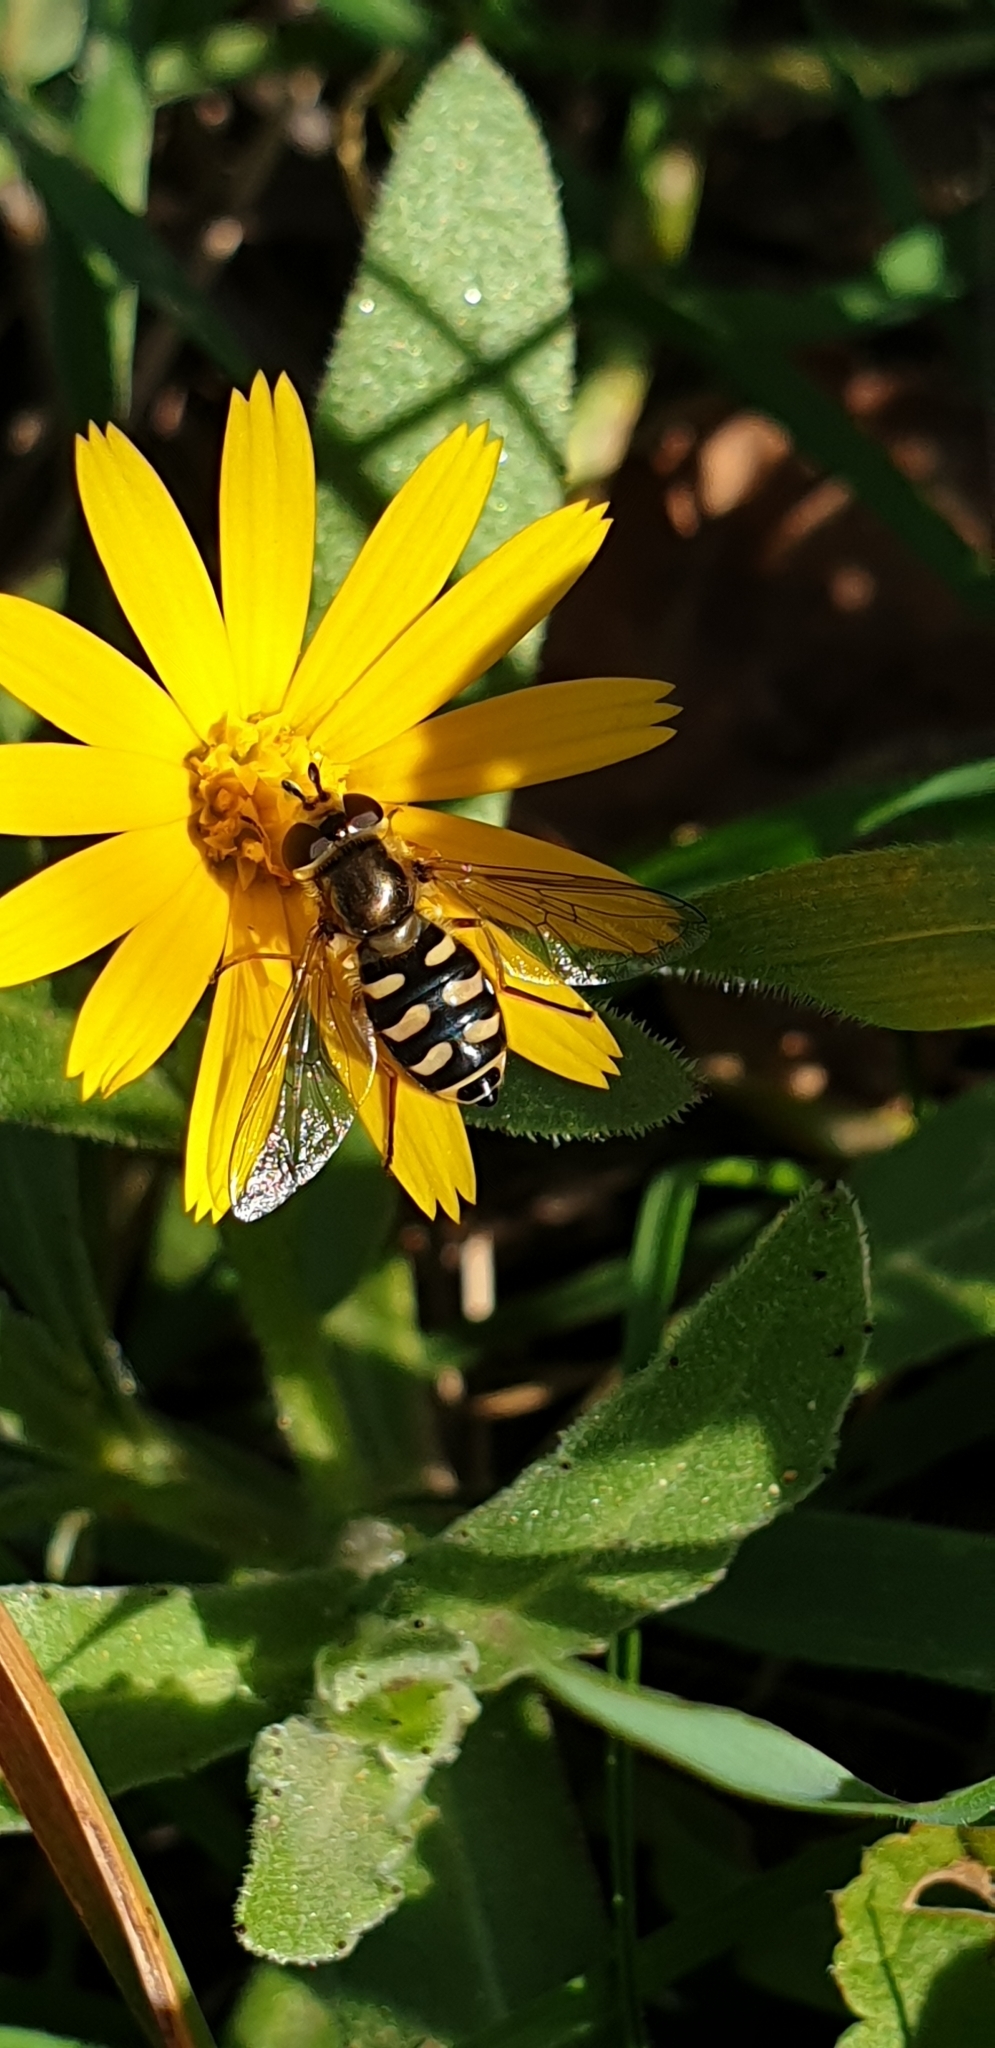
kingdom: Animalia
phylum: Arthropoda
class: Insecta
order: Diptera
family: Syrphidae
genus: Eupeodes
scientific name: Eupeodes corollae
